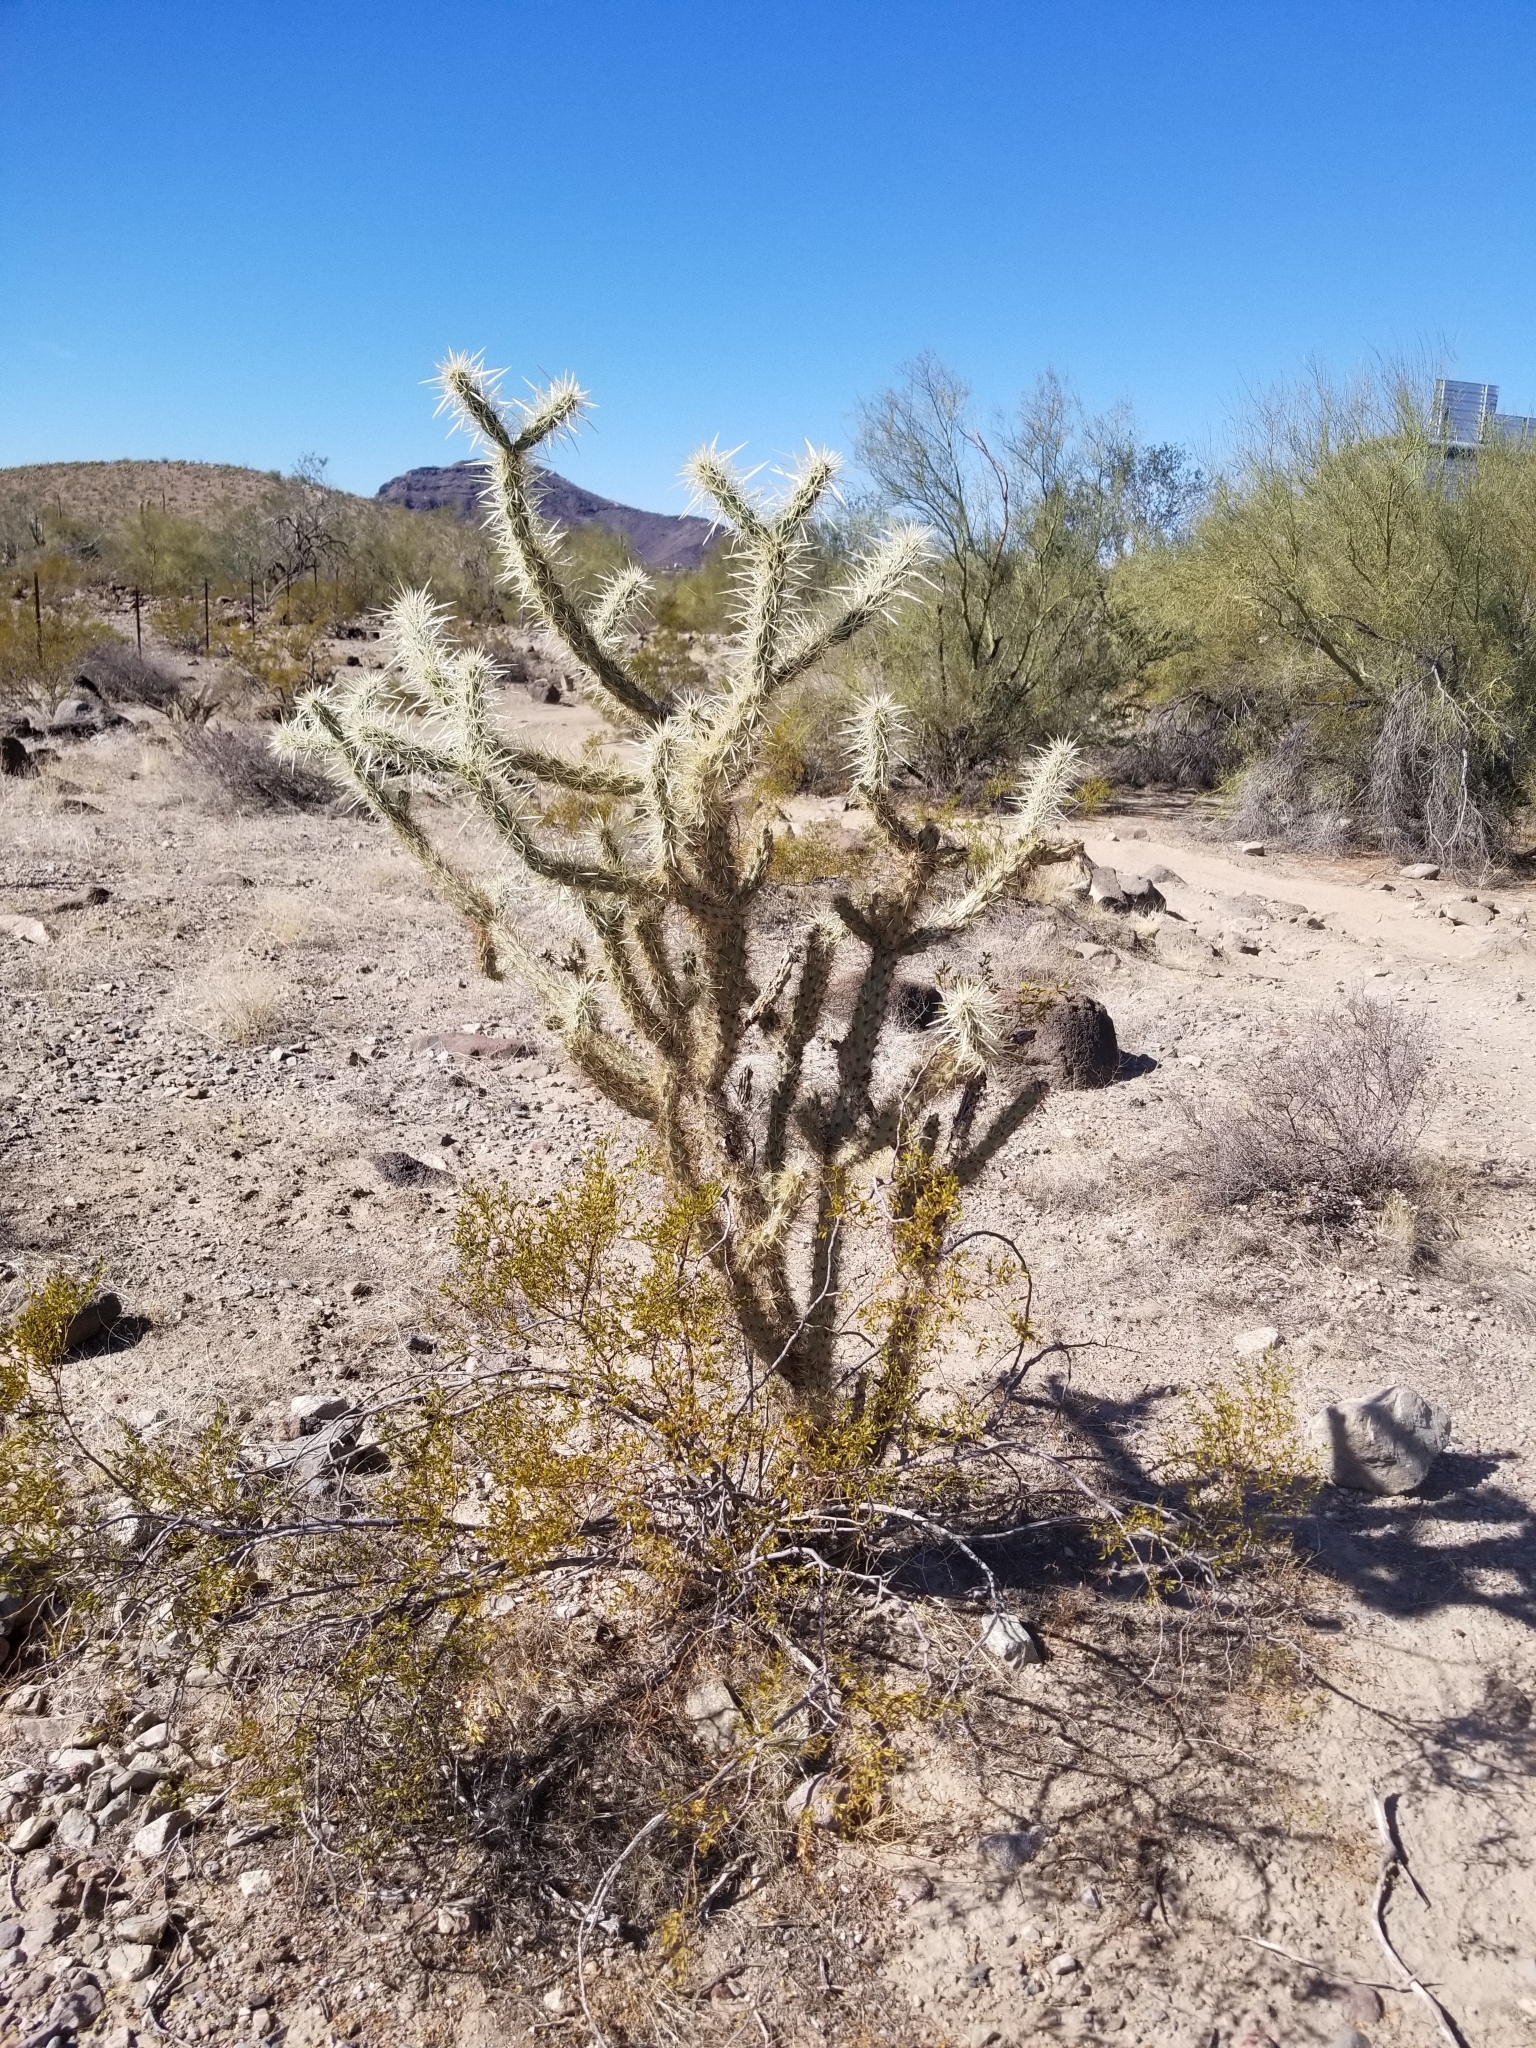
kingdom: Plantae
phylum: Tracheophyta
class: Magnoliopsida
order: Caryophyllales
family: Cactaceae
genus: Cylindropuntia
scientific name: Cylindropuntia acanthocarpa
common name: Buckhorn cholla
